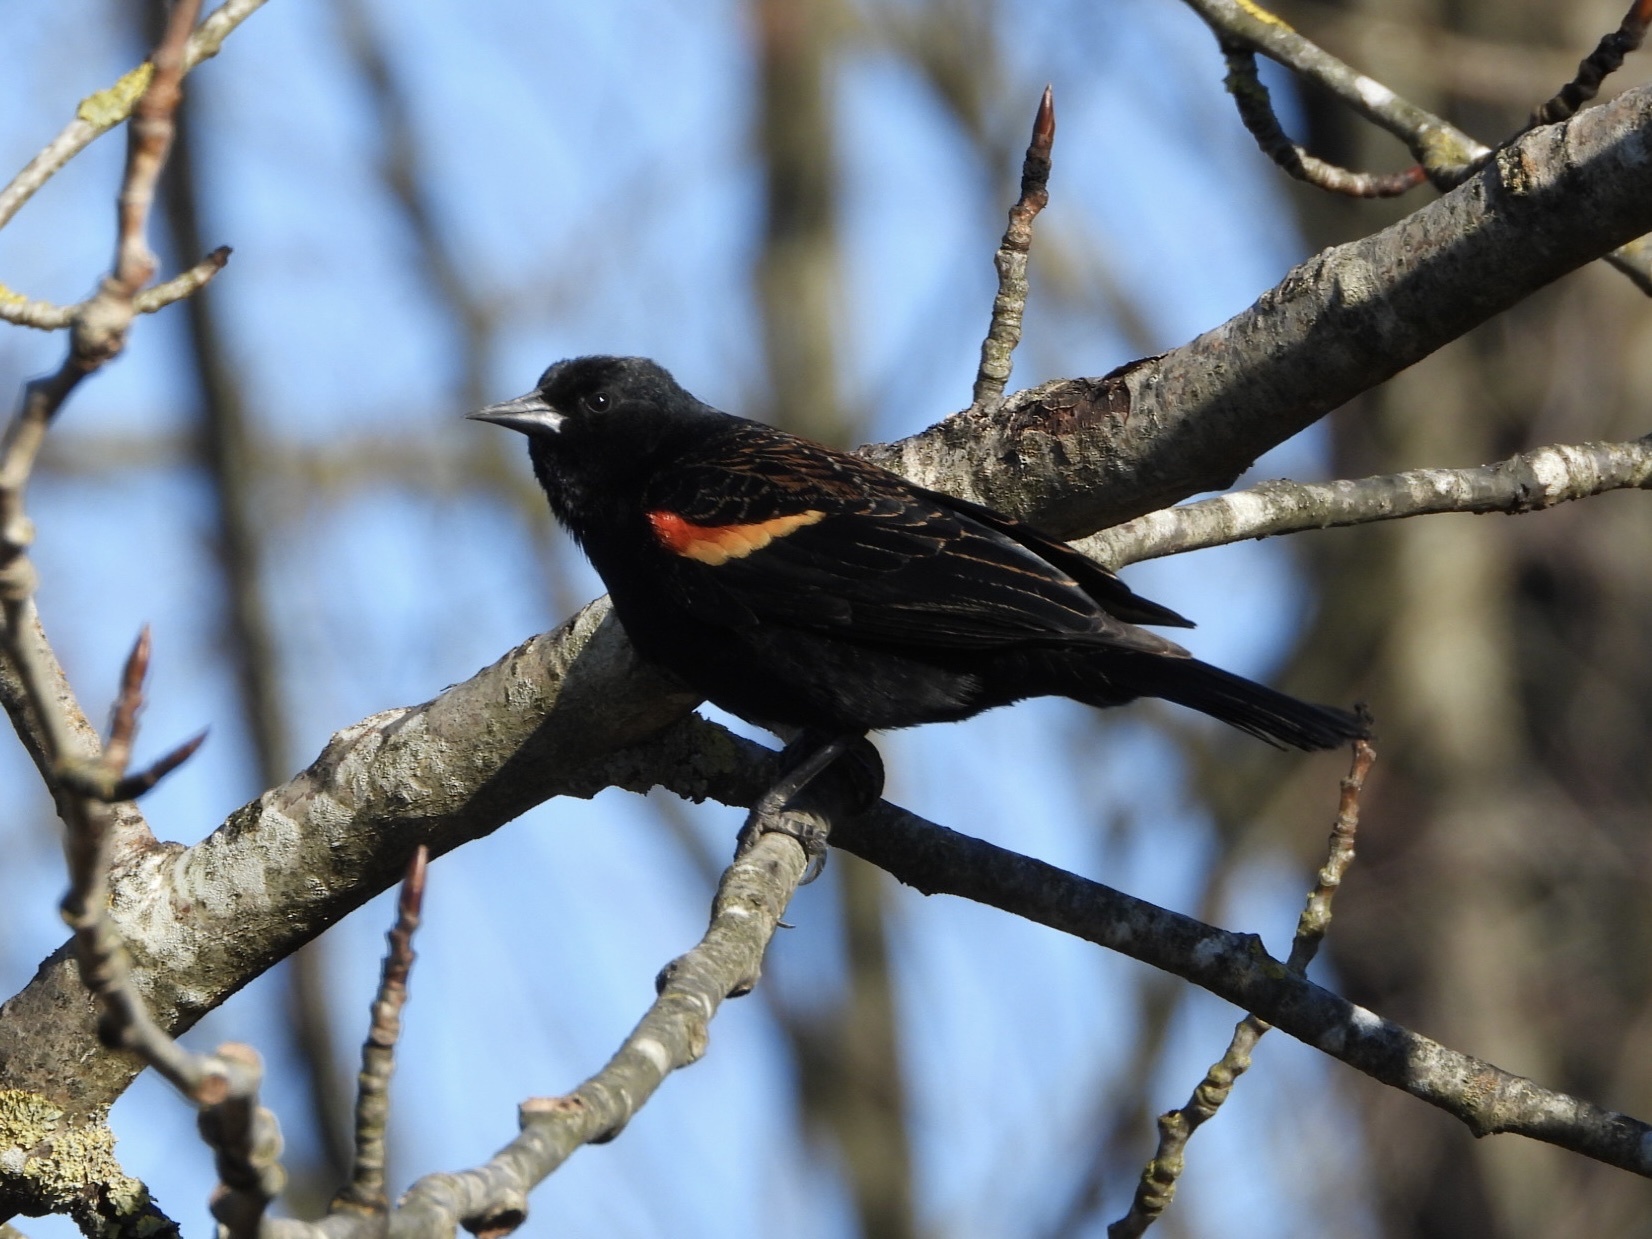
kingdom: Animalia
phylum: Chordata
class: Aves
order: Passeriformes
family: Icteridae
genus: Agelaius
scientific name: Agelaius phoeniceus
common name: Red-winged blackbird
